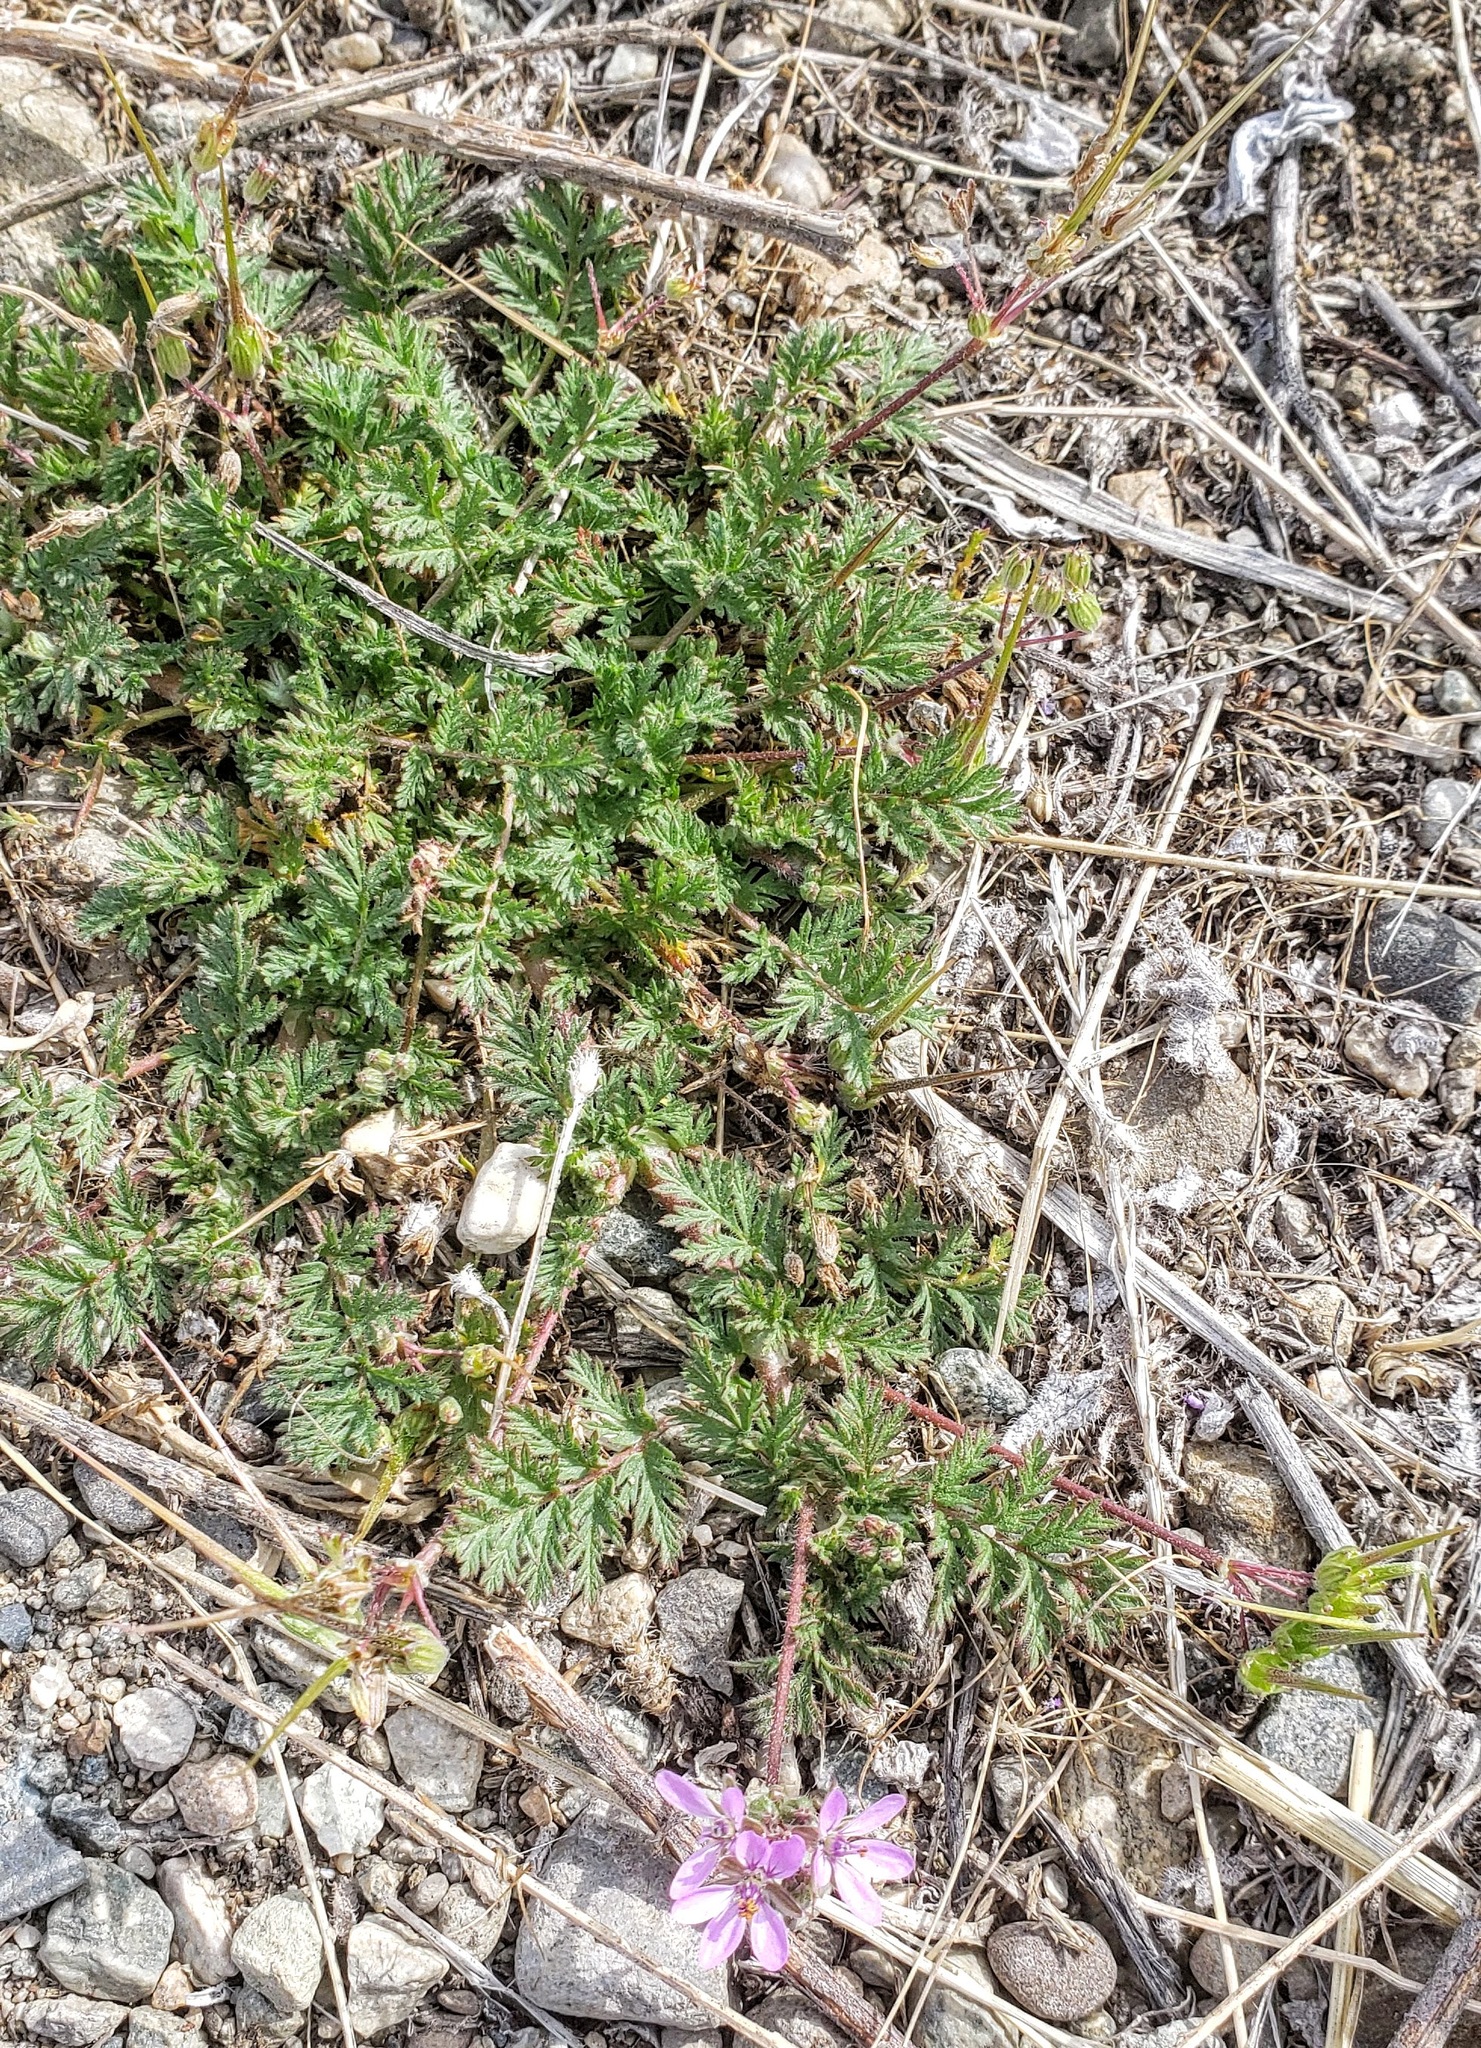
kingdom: Plantae
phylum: Tracheophyta
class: Magnoliopsida
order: Geraniales
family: Geraniaceae
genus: Erodium
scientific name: Erodium cicutarium
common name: Common stork's-bill
